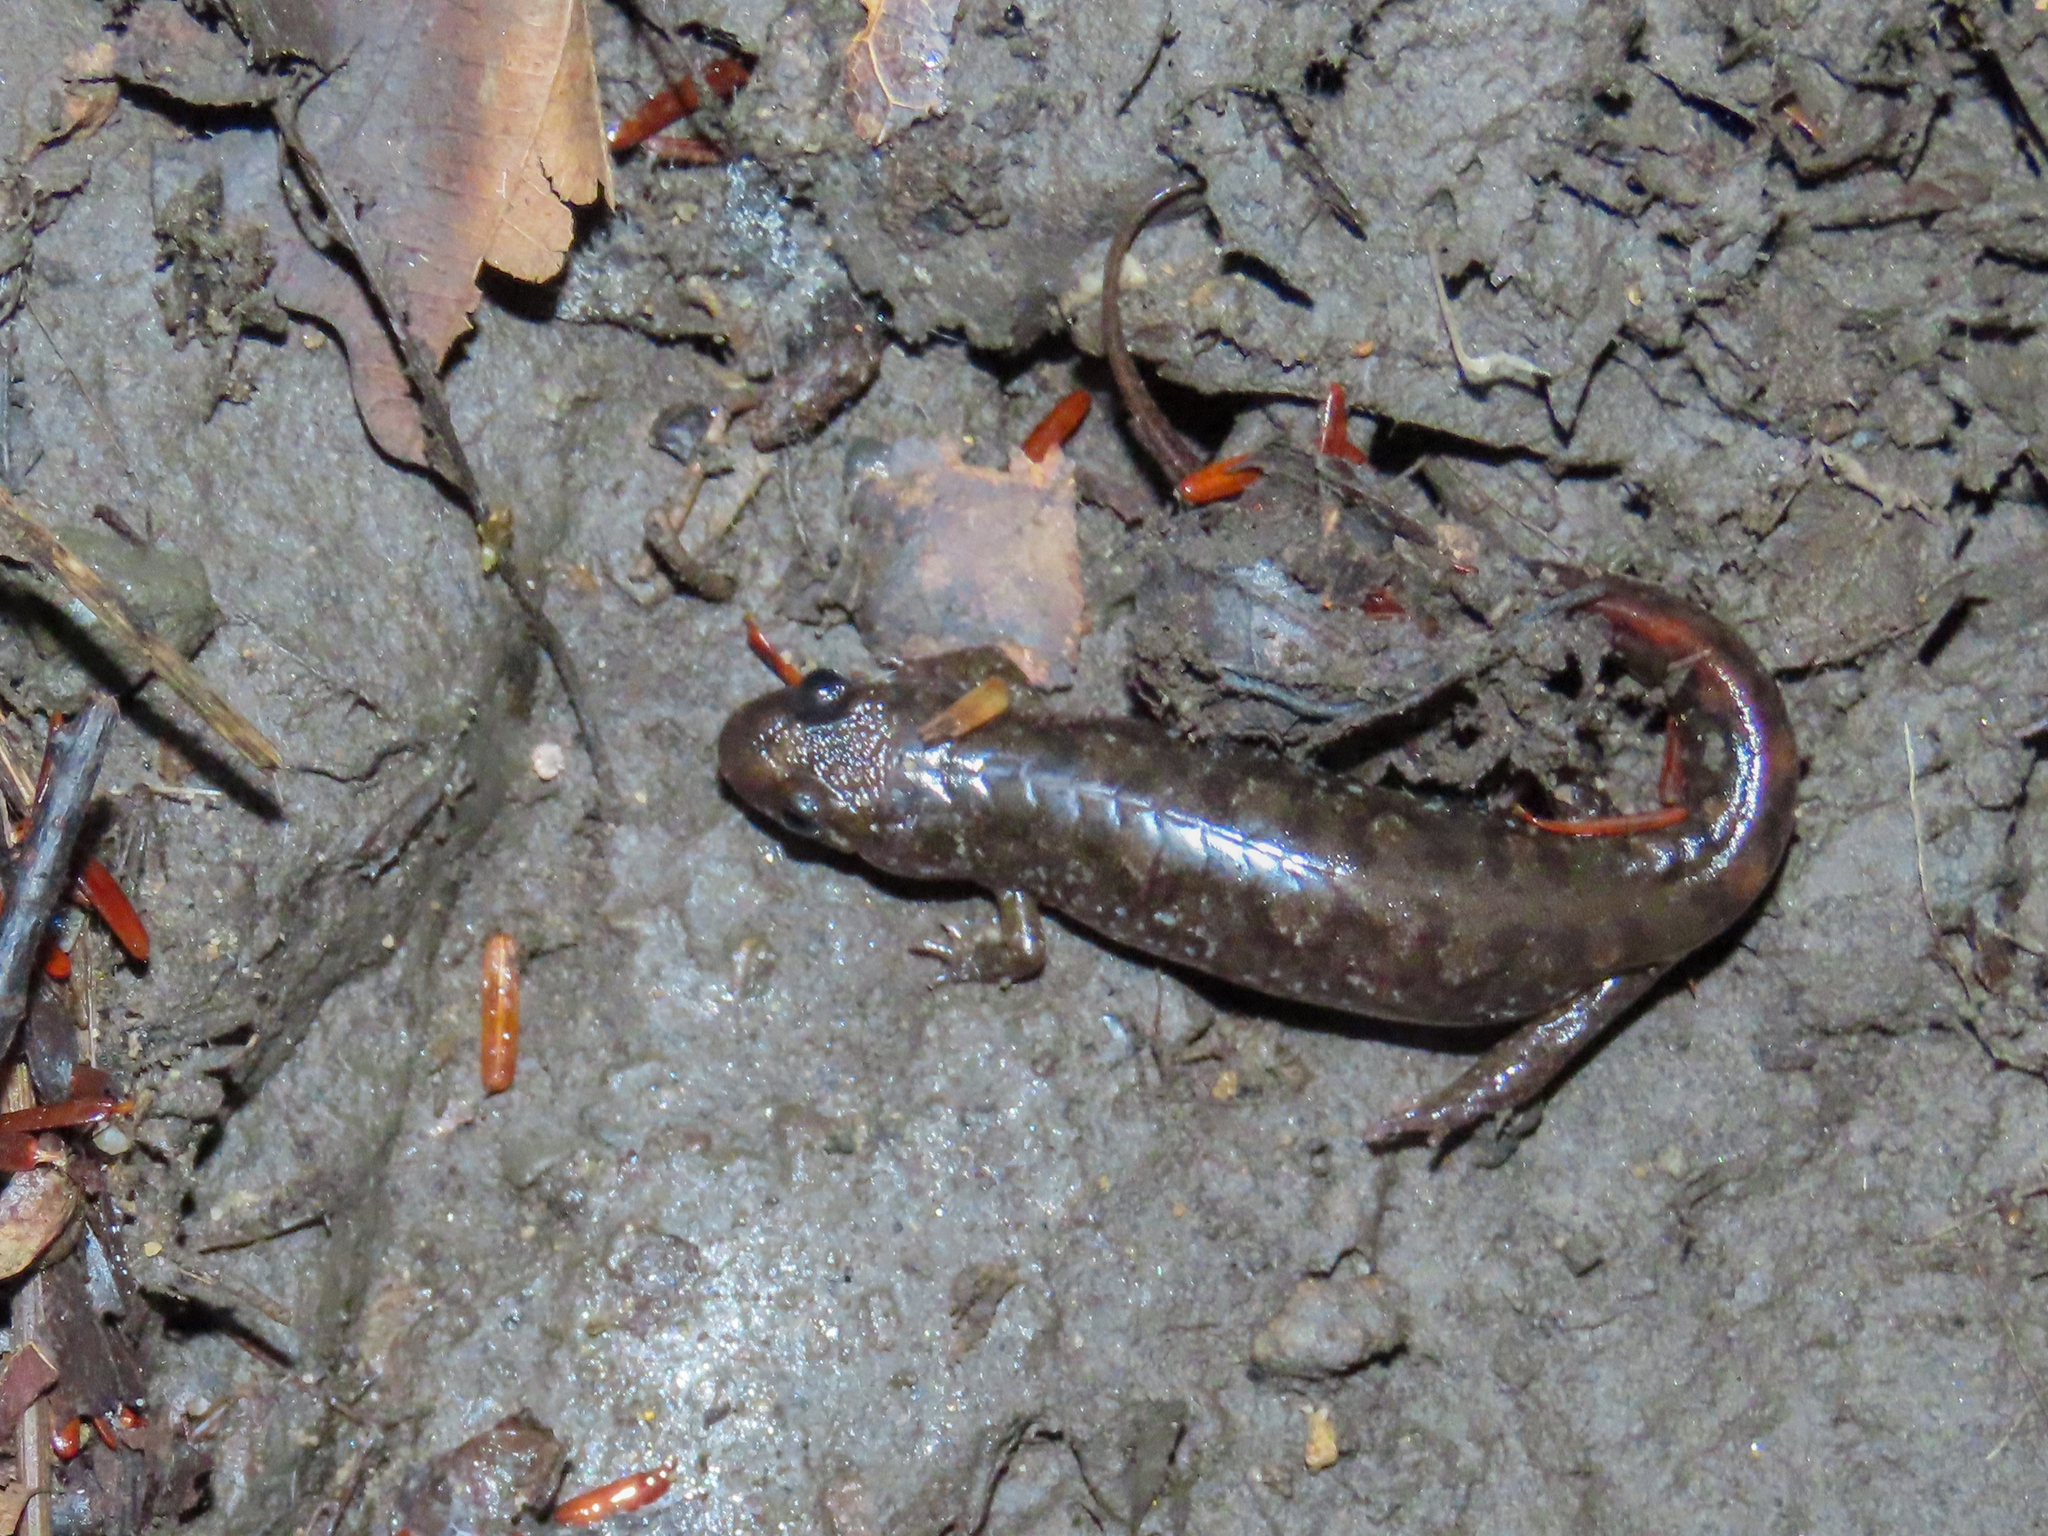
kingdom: Animalia
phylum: Chordata
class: Amphibia
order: Caudata
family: Plethodontidae
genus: Desmognathus
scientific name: Desmognathus monticola
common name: Seal salamander
